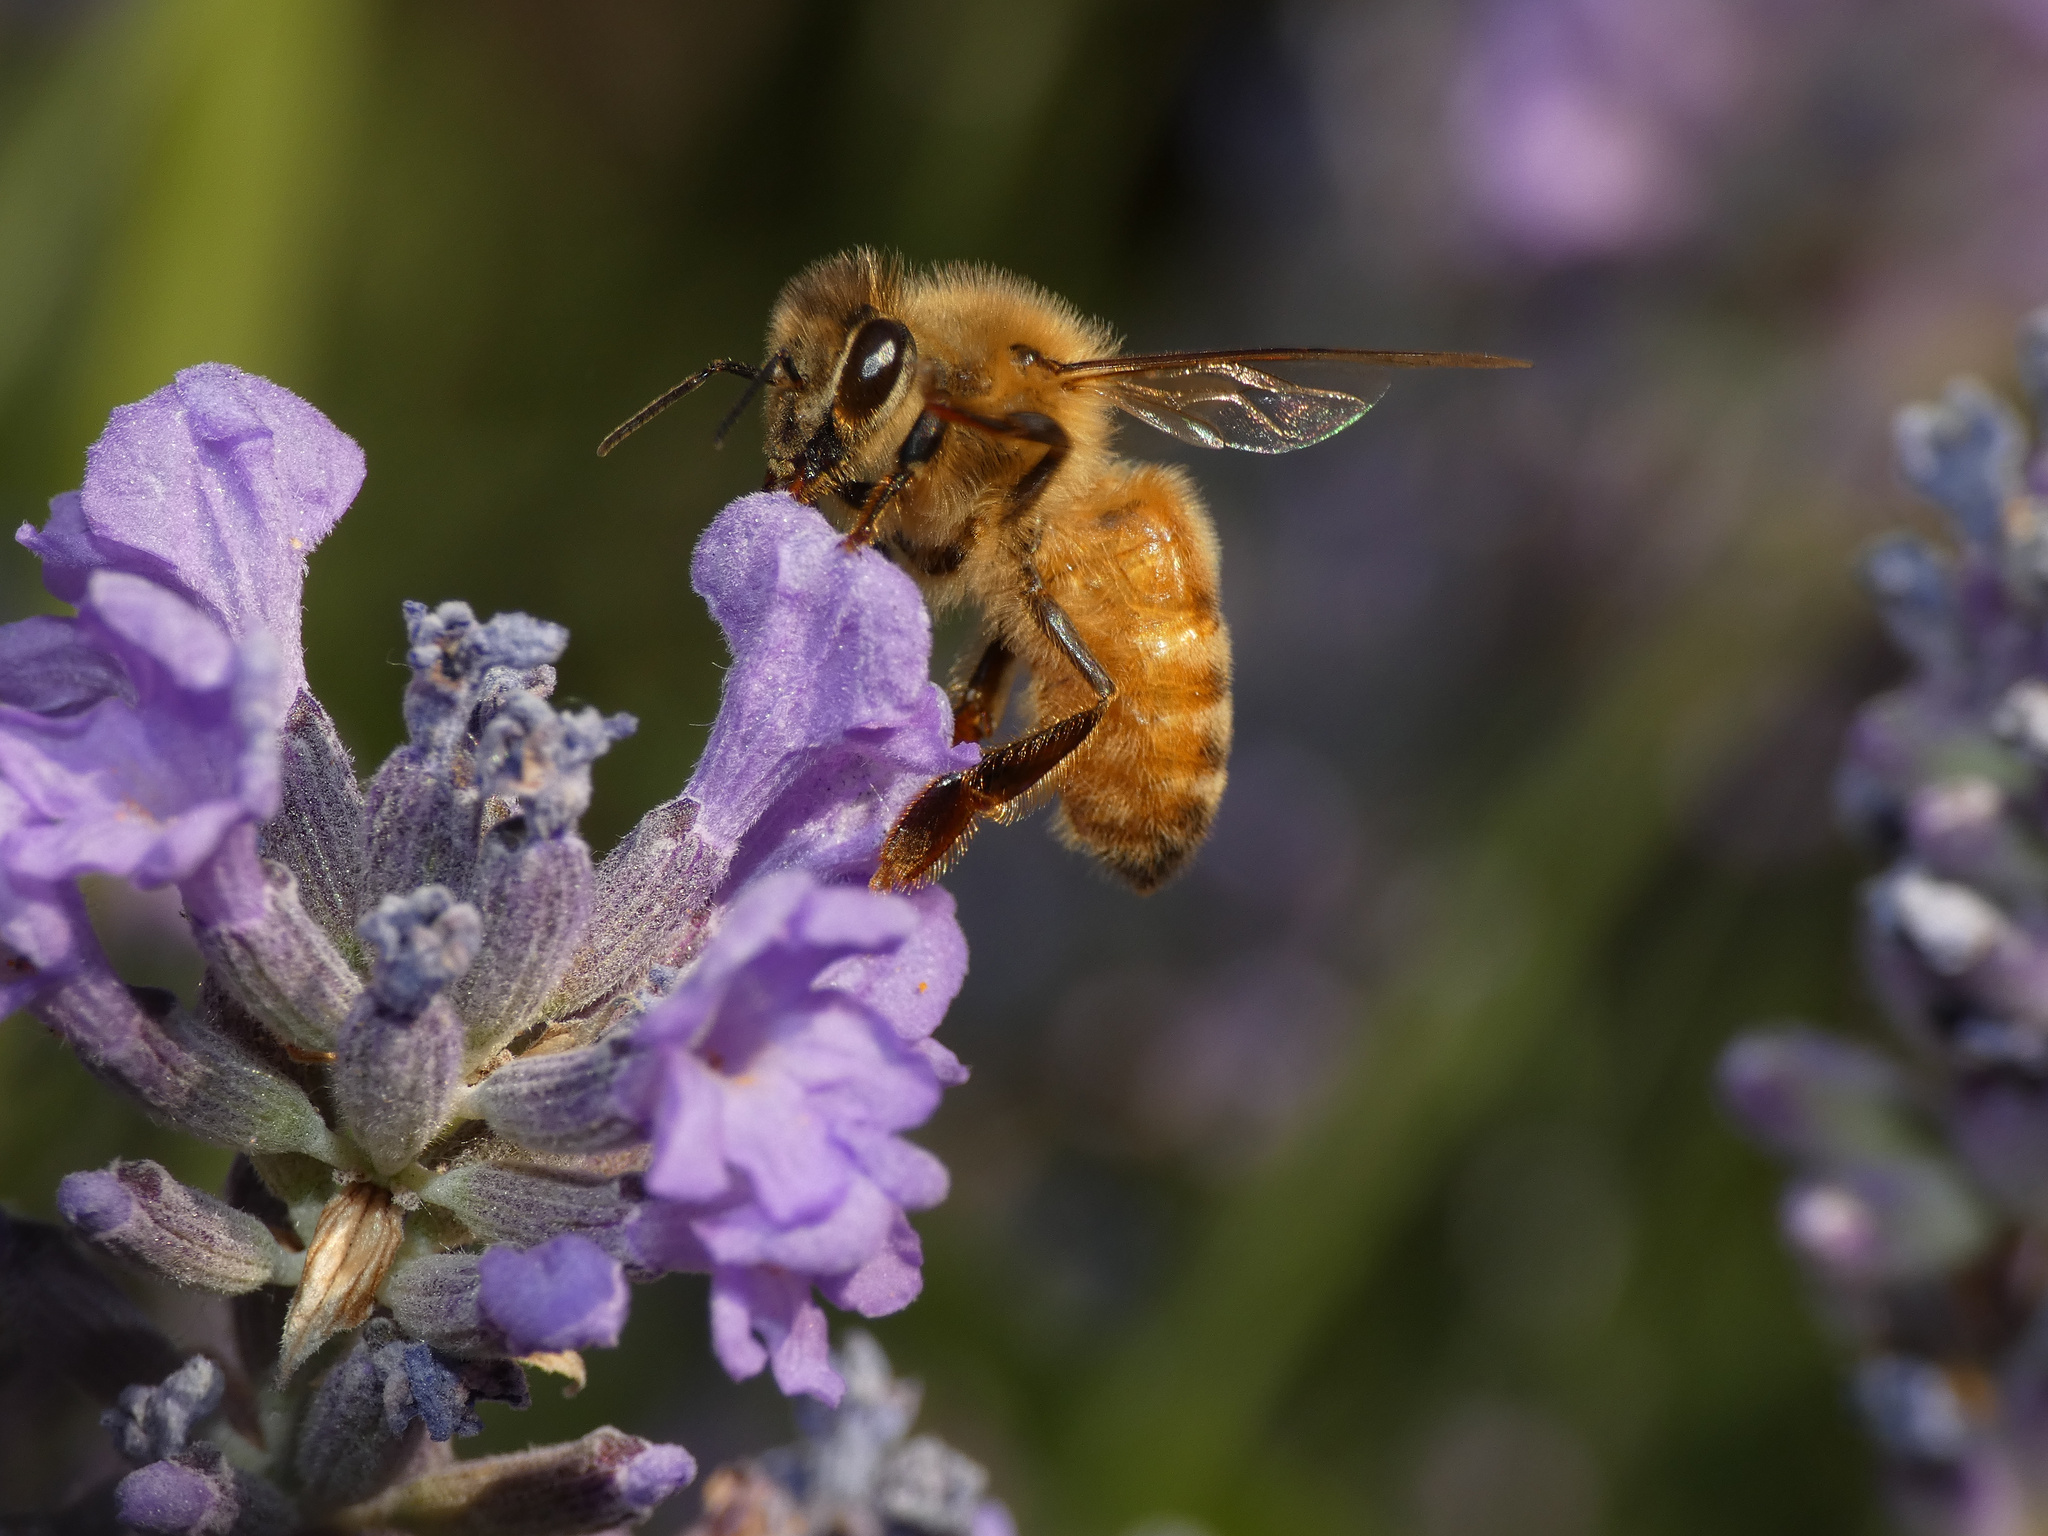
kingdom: Animalia
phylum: Arthropoda
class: Insecta
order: Hymenoptera
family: Apidae
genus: Apis
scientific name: Apis mellifera
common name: Honey bee
